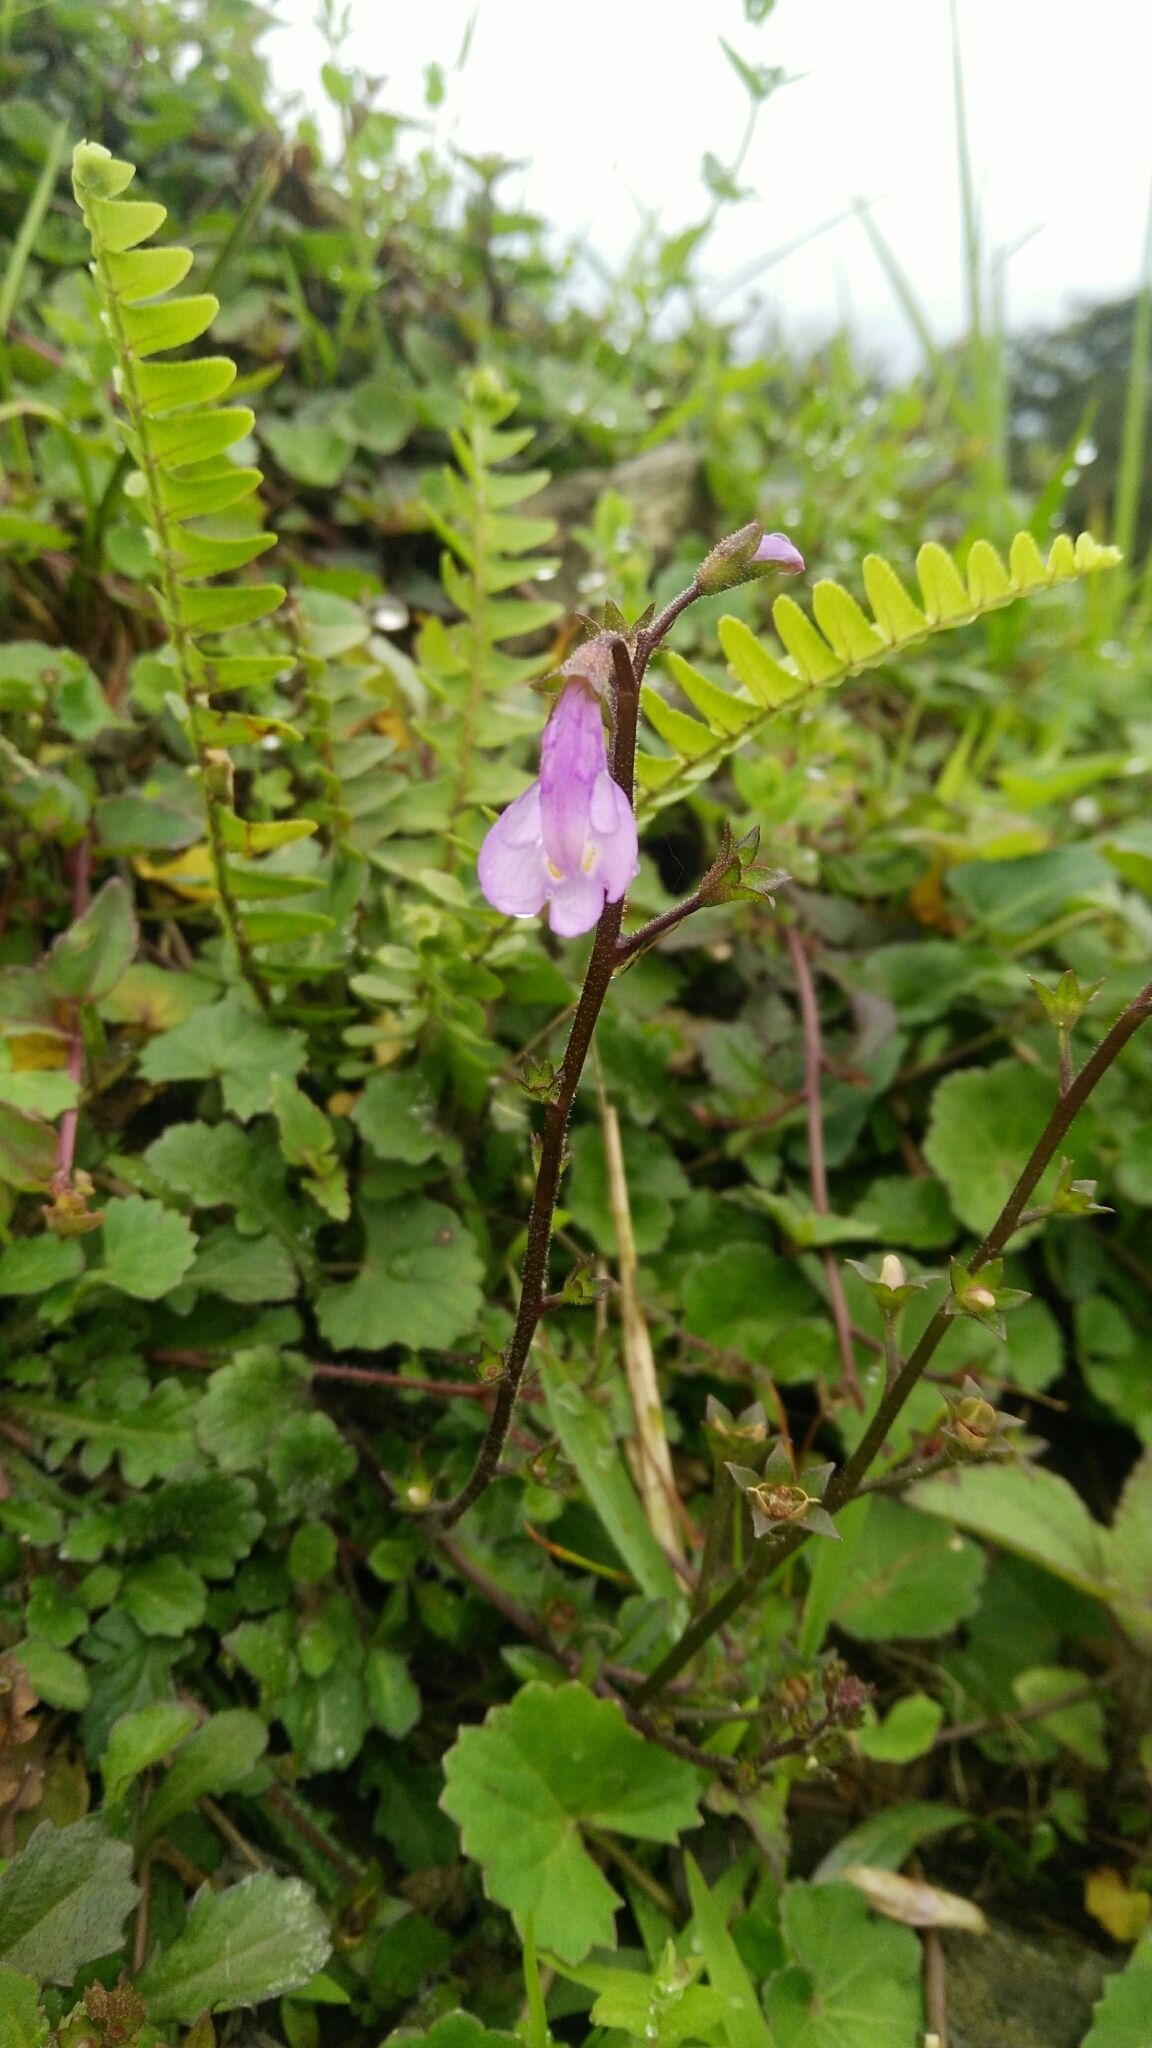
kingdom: Plantae
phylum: Tracheophyta
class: Magnoliopsida
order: Lamiales
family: Mazaceae
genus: Mazus
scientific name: Mazus fauriei
